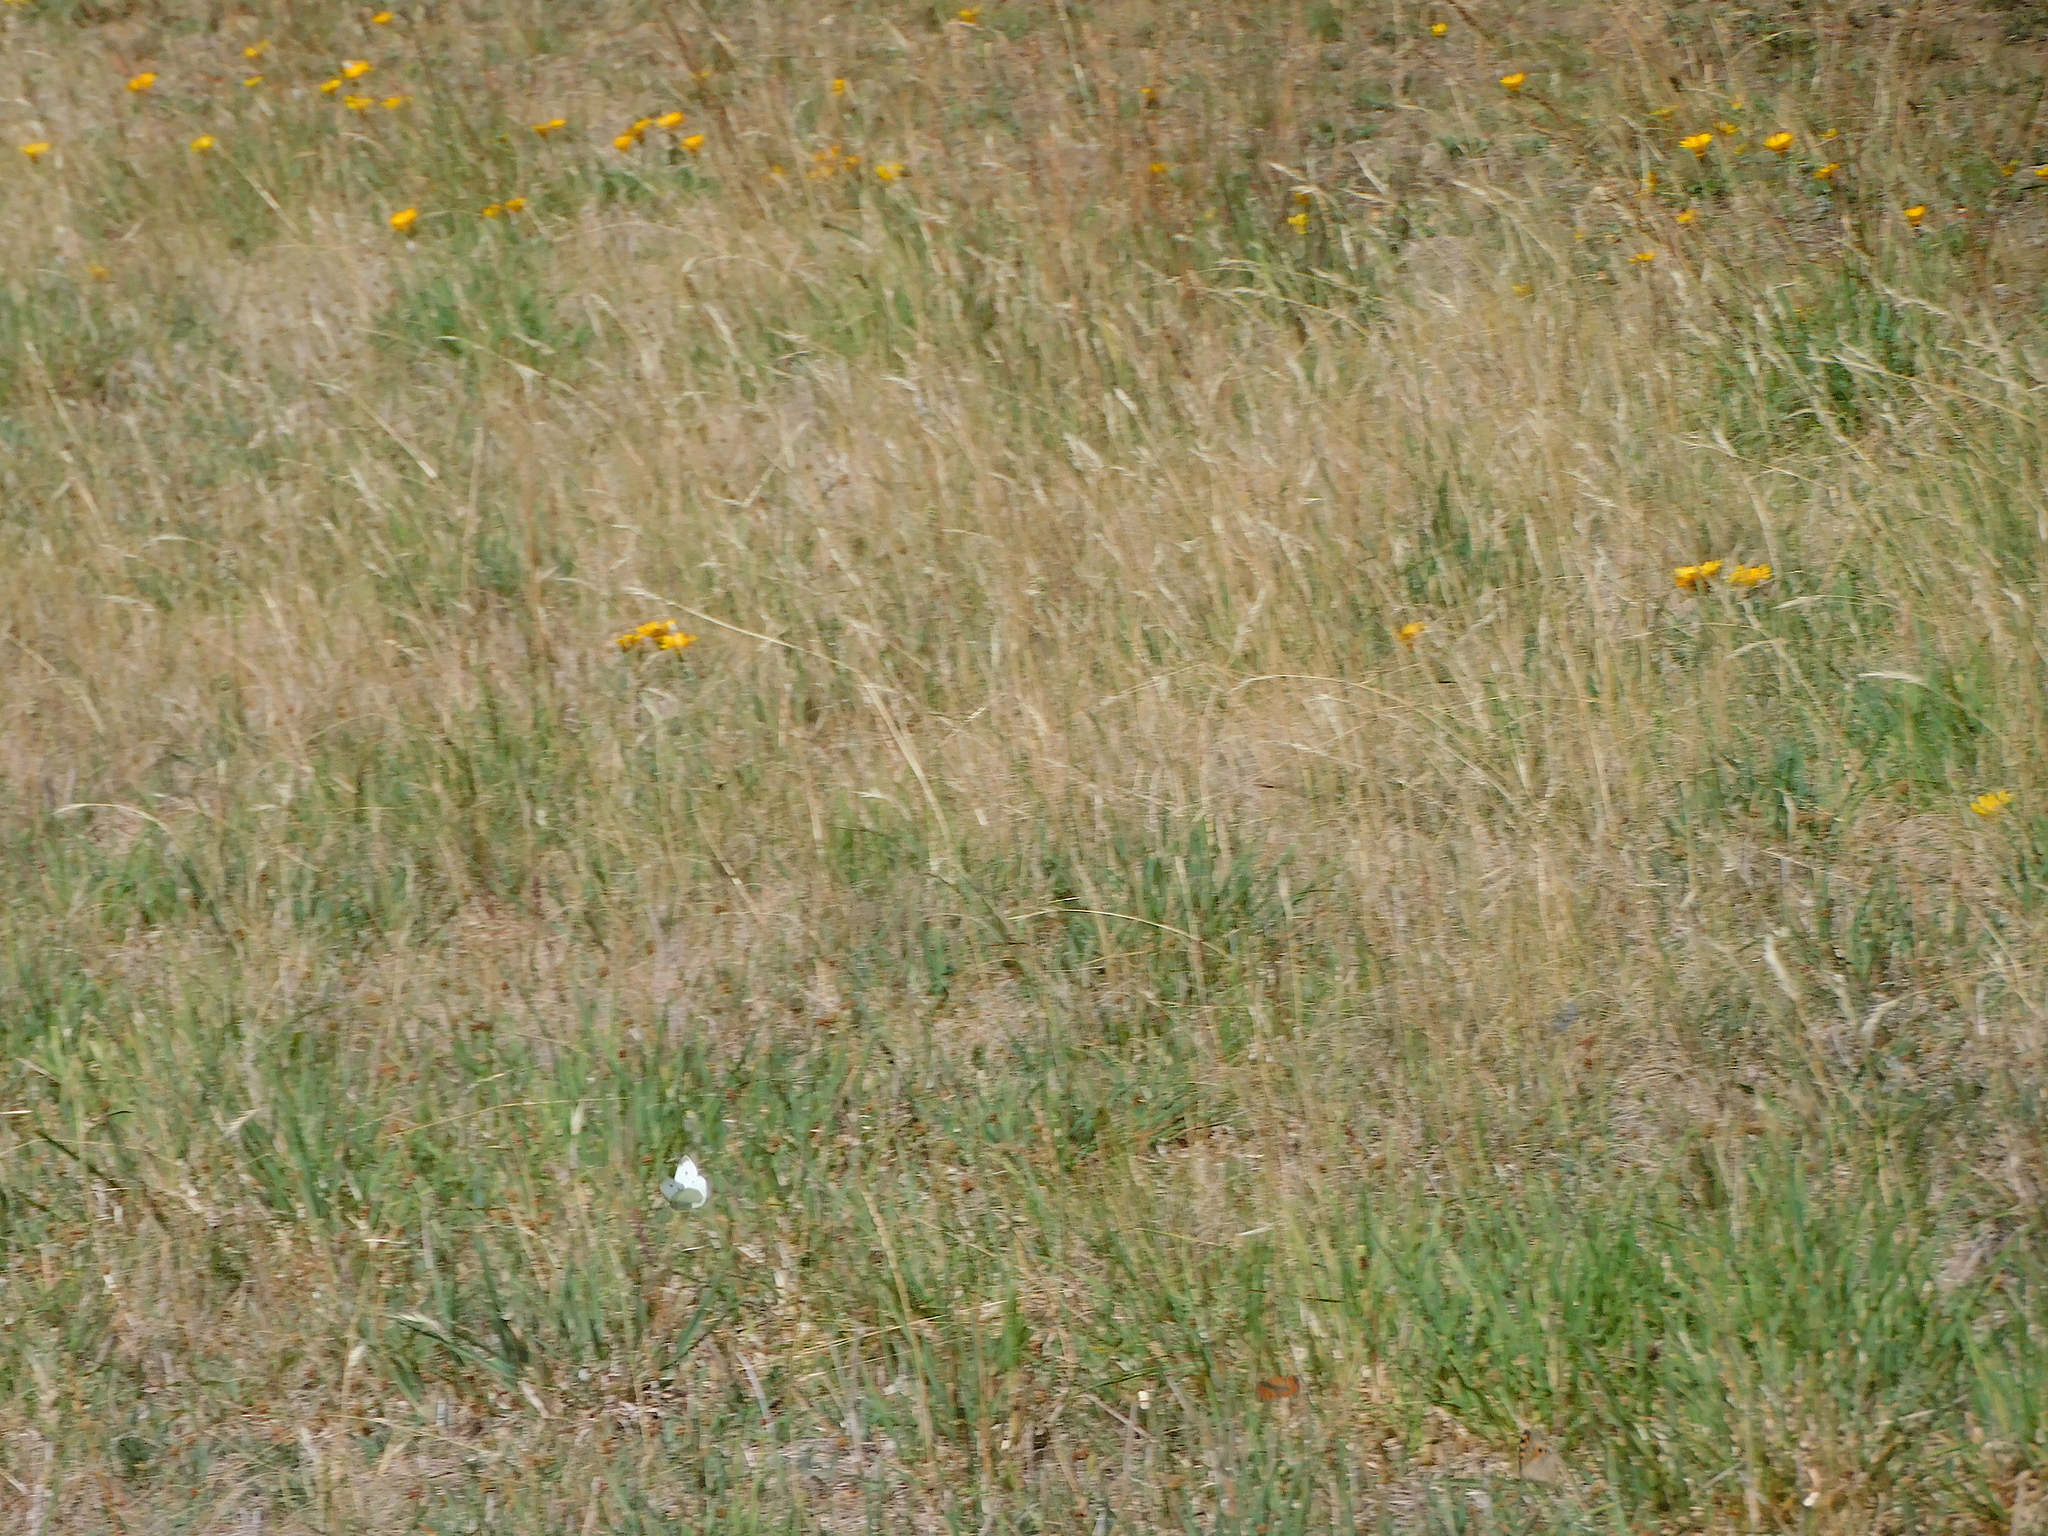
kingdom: Animalia
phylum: Arthropoda
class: Insecta
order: Lepidoptera
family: Pieridae
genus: Pieris
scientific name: Pieris rapae
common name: Small white
